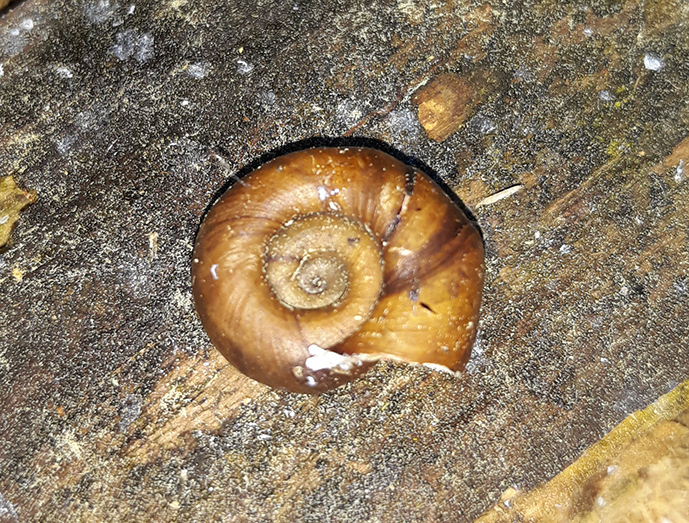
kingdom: Animalia
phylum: Mollusca
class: Gastropoda
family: Planorbidae
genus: Planorbarius
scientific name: Planorbarius corneus
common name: Great ramshorn
